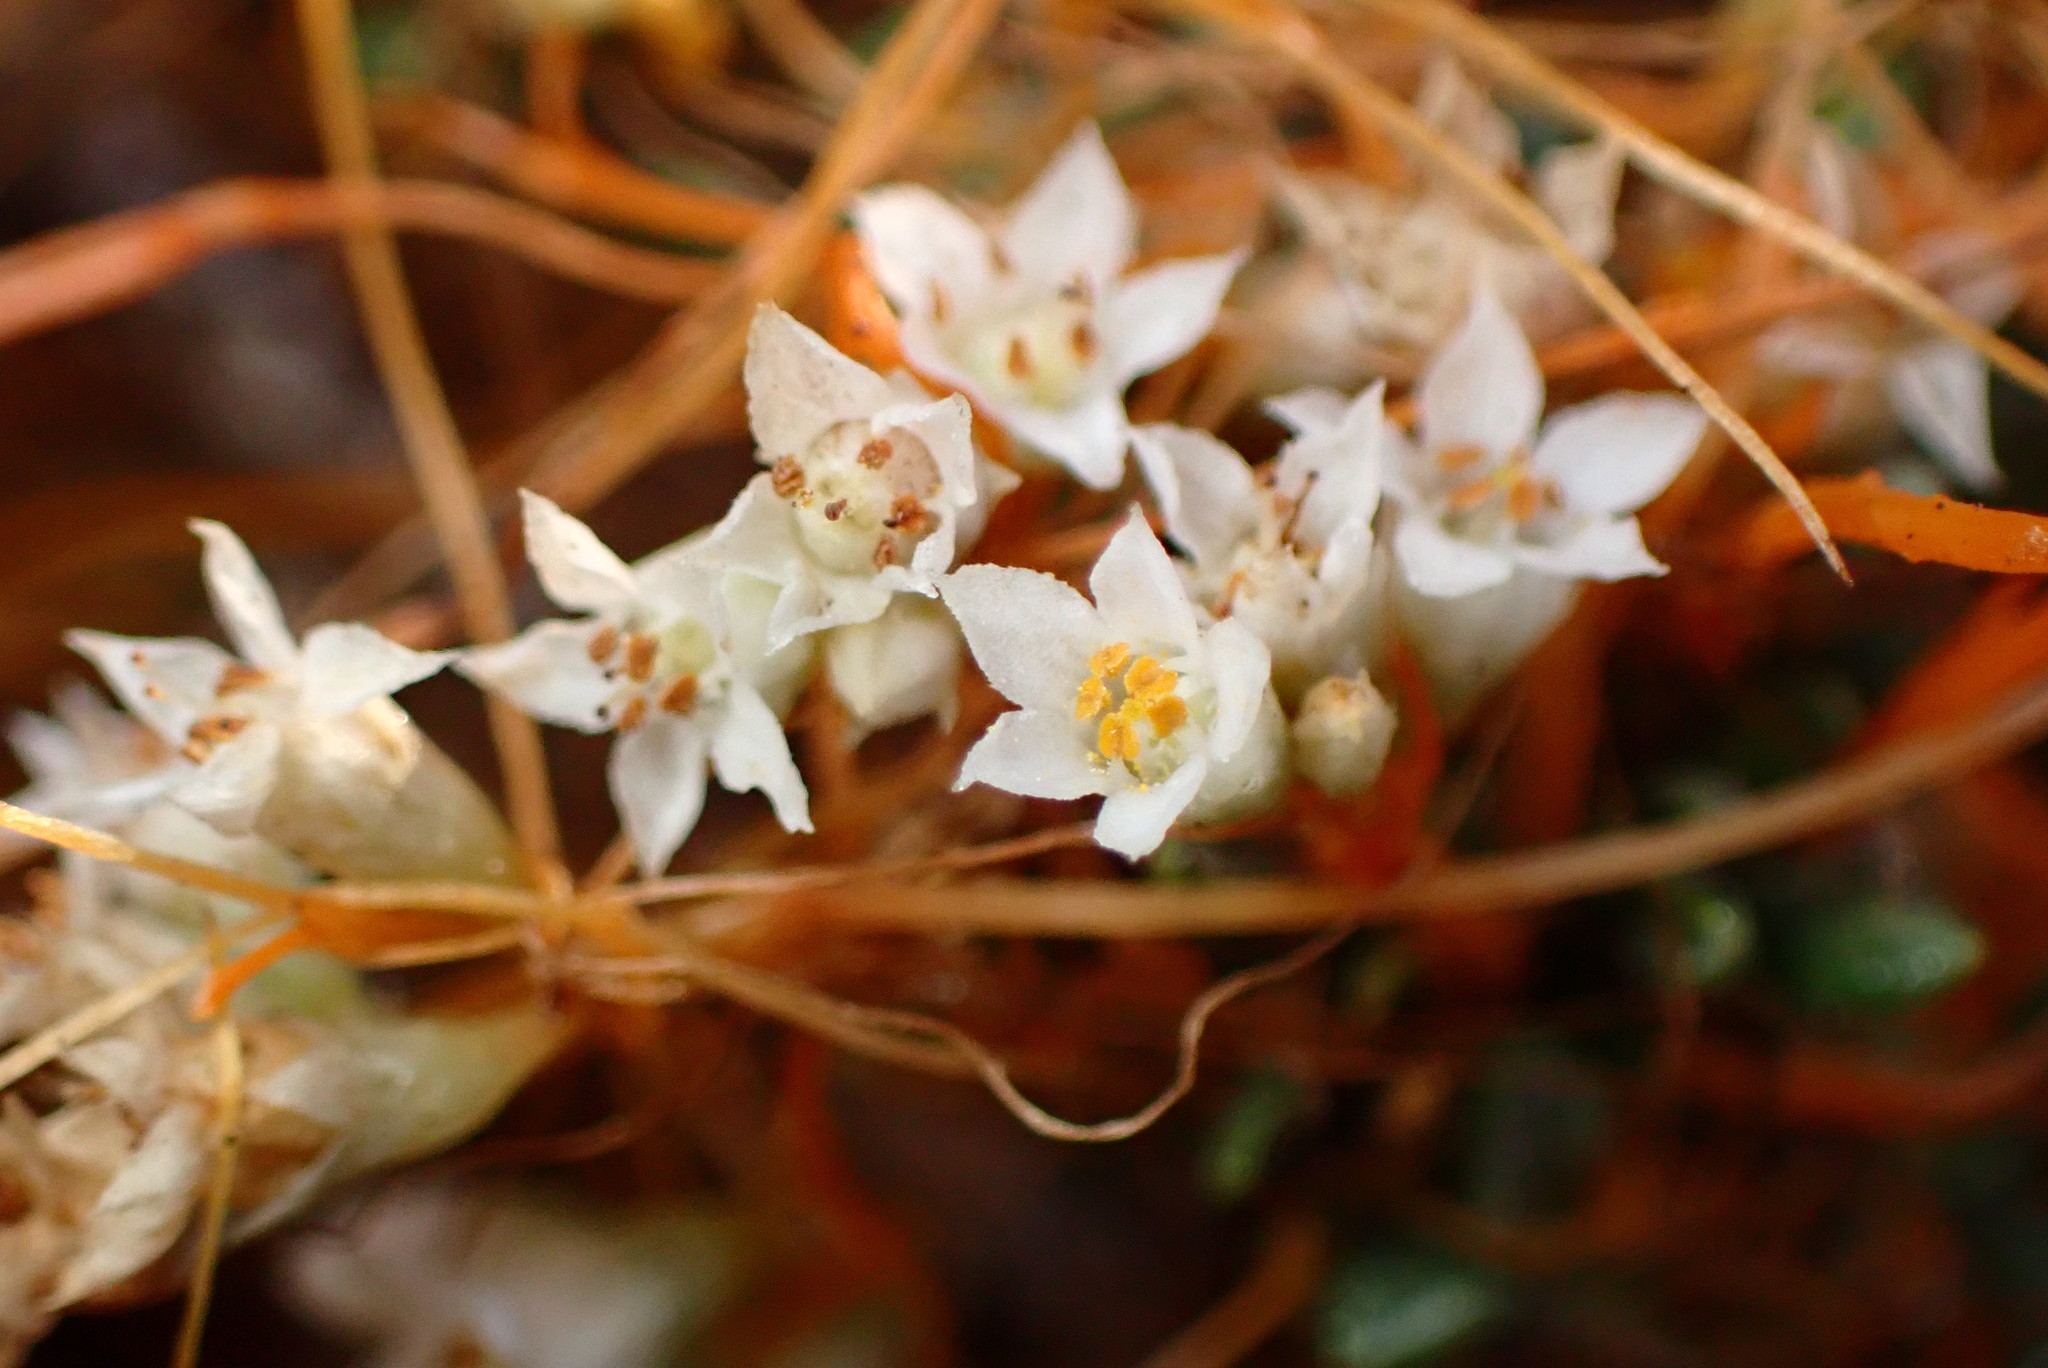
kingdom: Plantae
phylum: Tracheophyta
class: Magnoliopsida
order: Solanales
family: Convolvulaceae
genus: Cuscuta
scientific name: Cuscuta pacifica
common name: Large saltmarsh dodder
